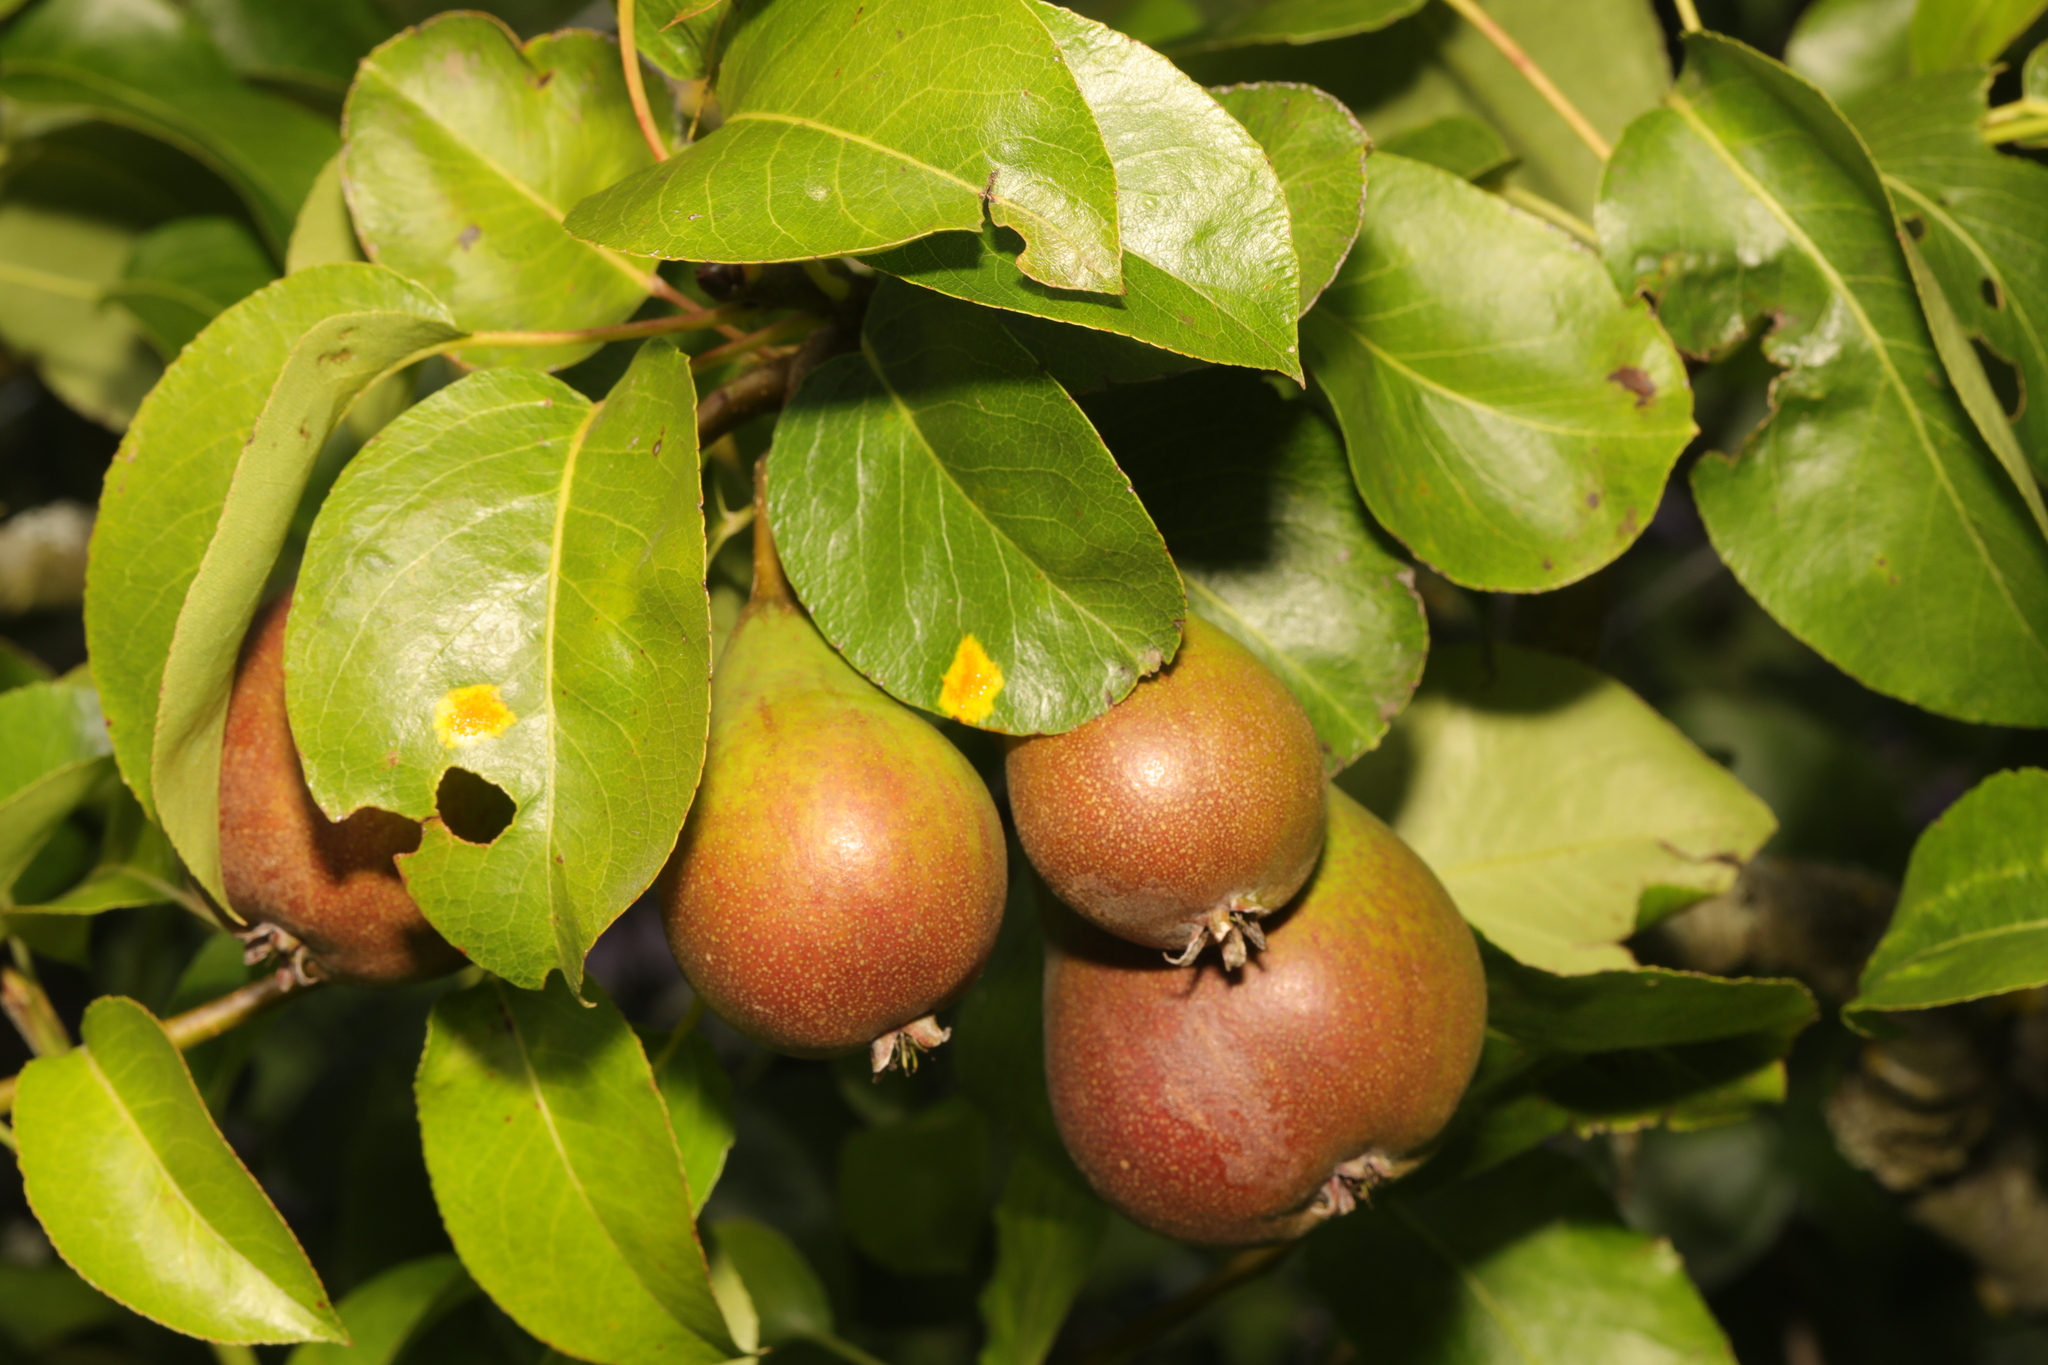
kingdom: Plantae
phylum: Tracheophyta
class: Magnoliopsida
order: Rosales
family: Rosaceae
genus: Pyrus
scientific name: Pyrus communis
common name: Pear
